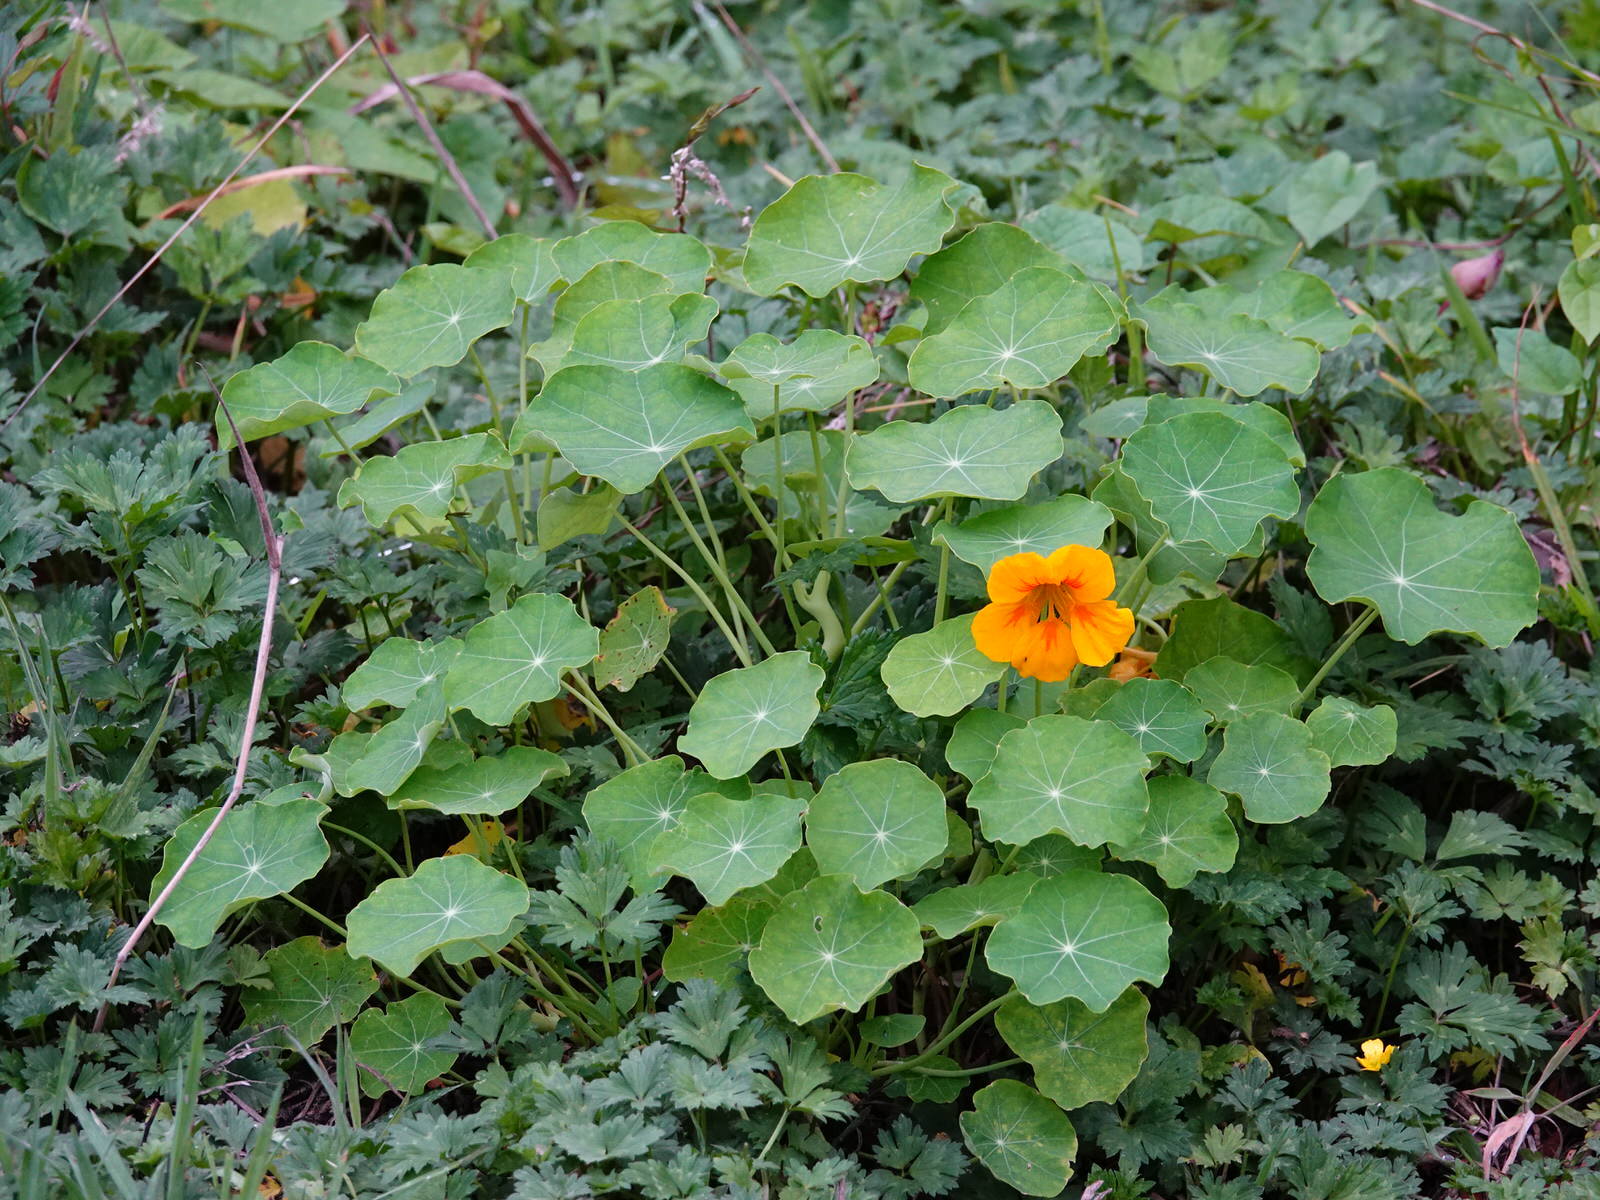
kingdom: Plantae
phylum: Tracheophyta
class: Magnoliopsida
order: Brassicales
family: Tropaeolaceae
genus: Tropaeolum
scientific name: Tropaeolum majus
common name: Nasturtium
